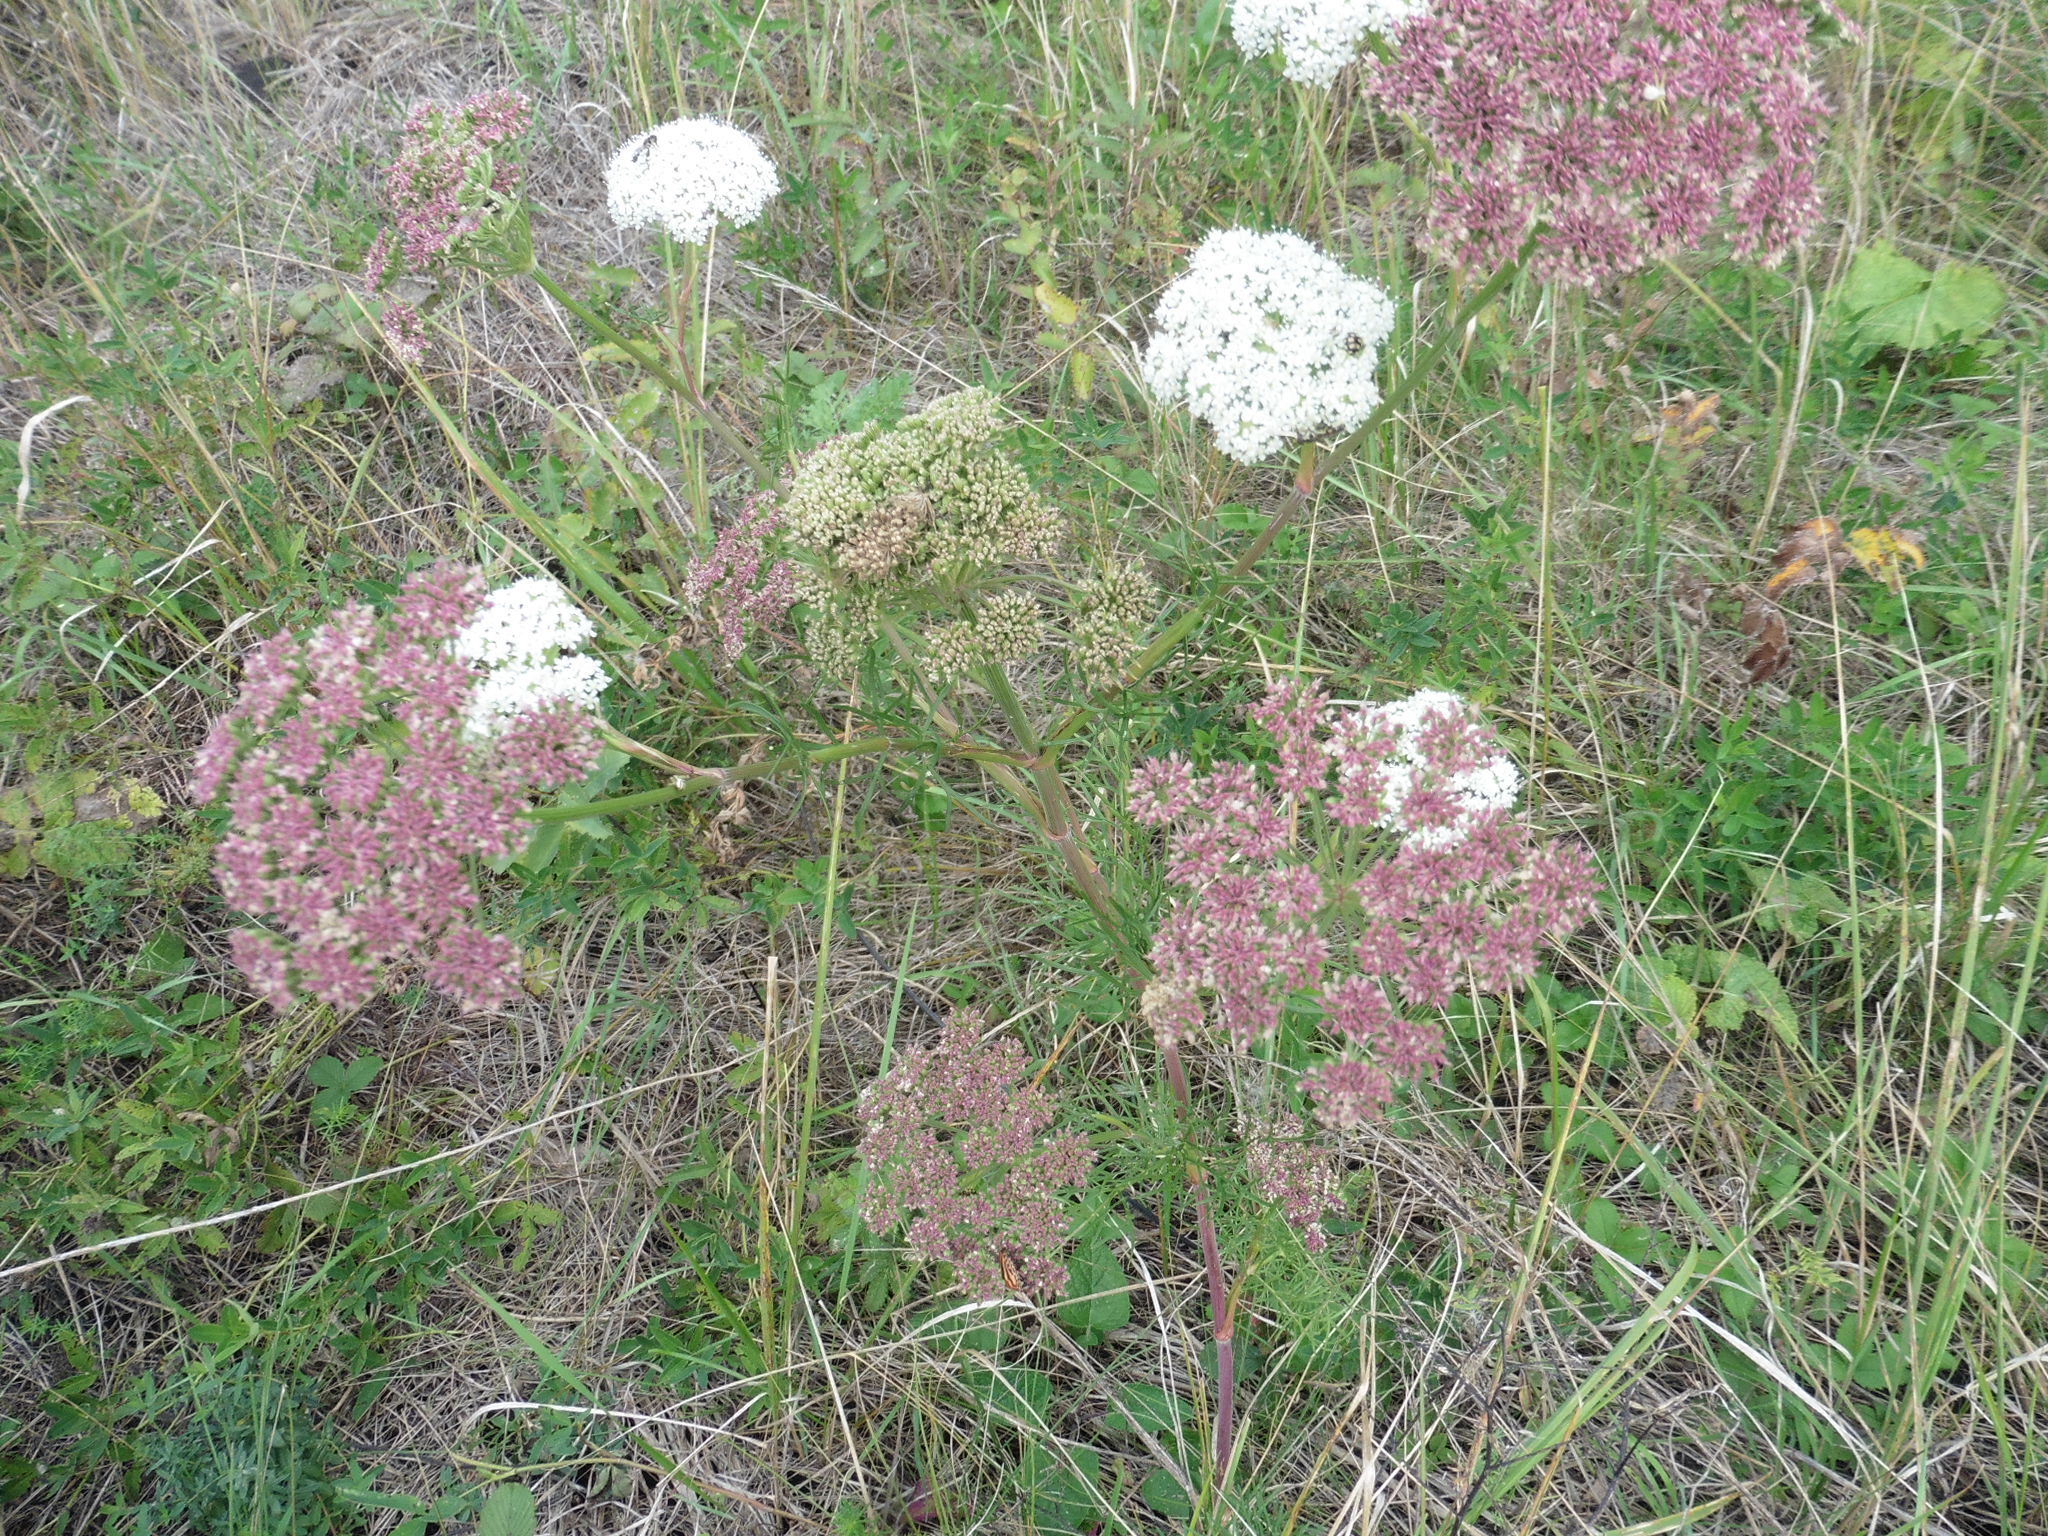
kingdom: Plantae
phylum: Tracheophyta
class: Magnoliopsida
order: Apiales
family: Apiaceae
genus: Seseli
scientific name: Seseli annuum
